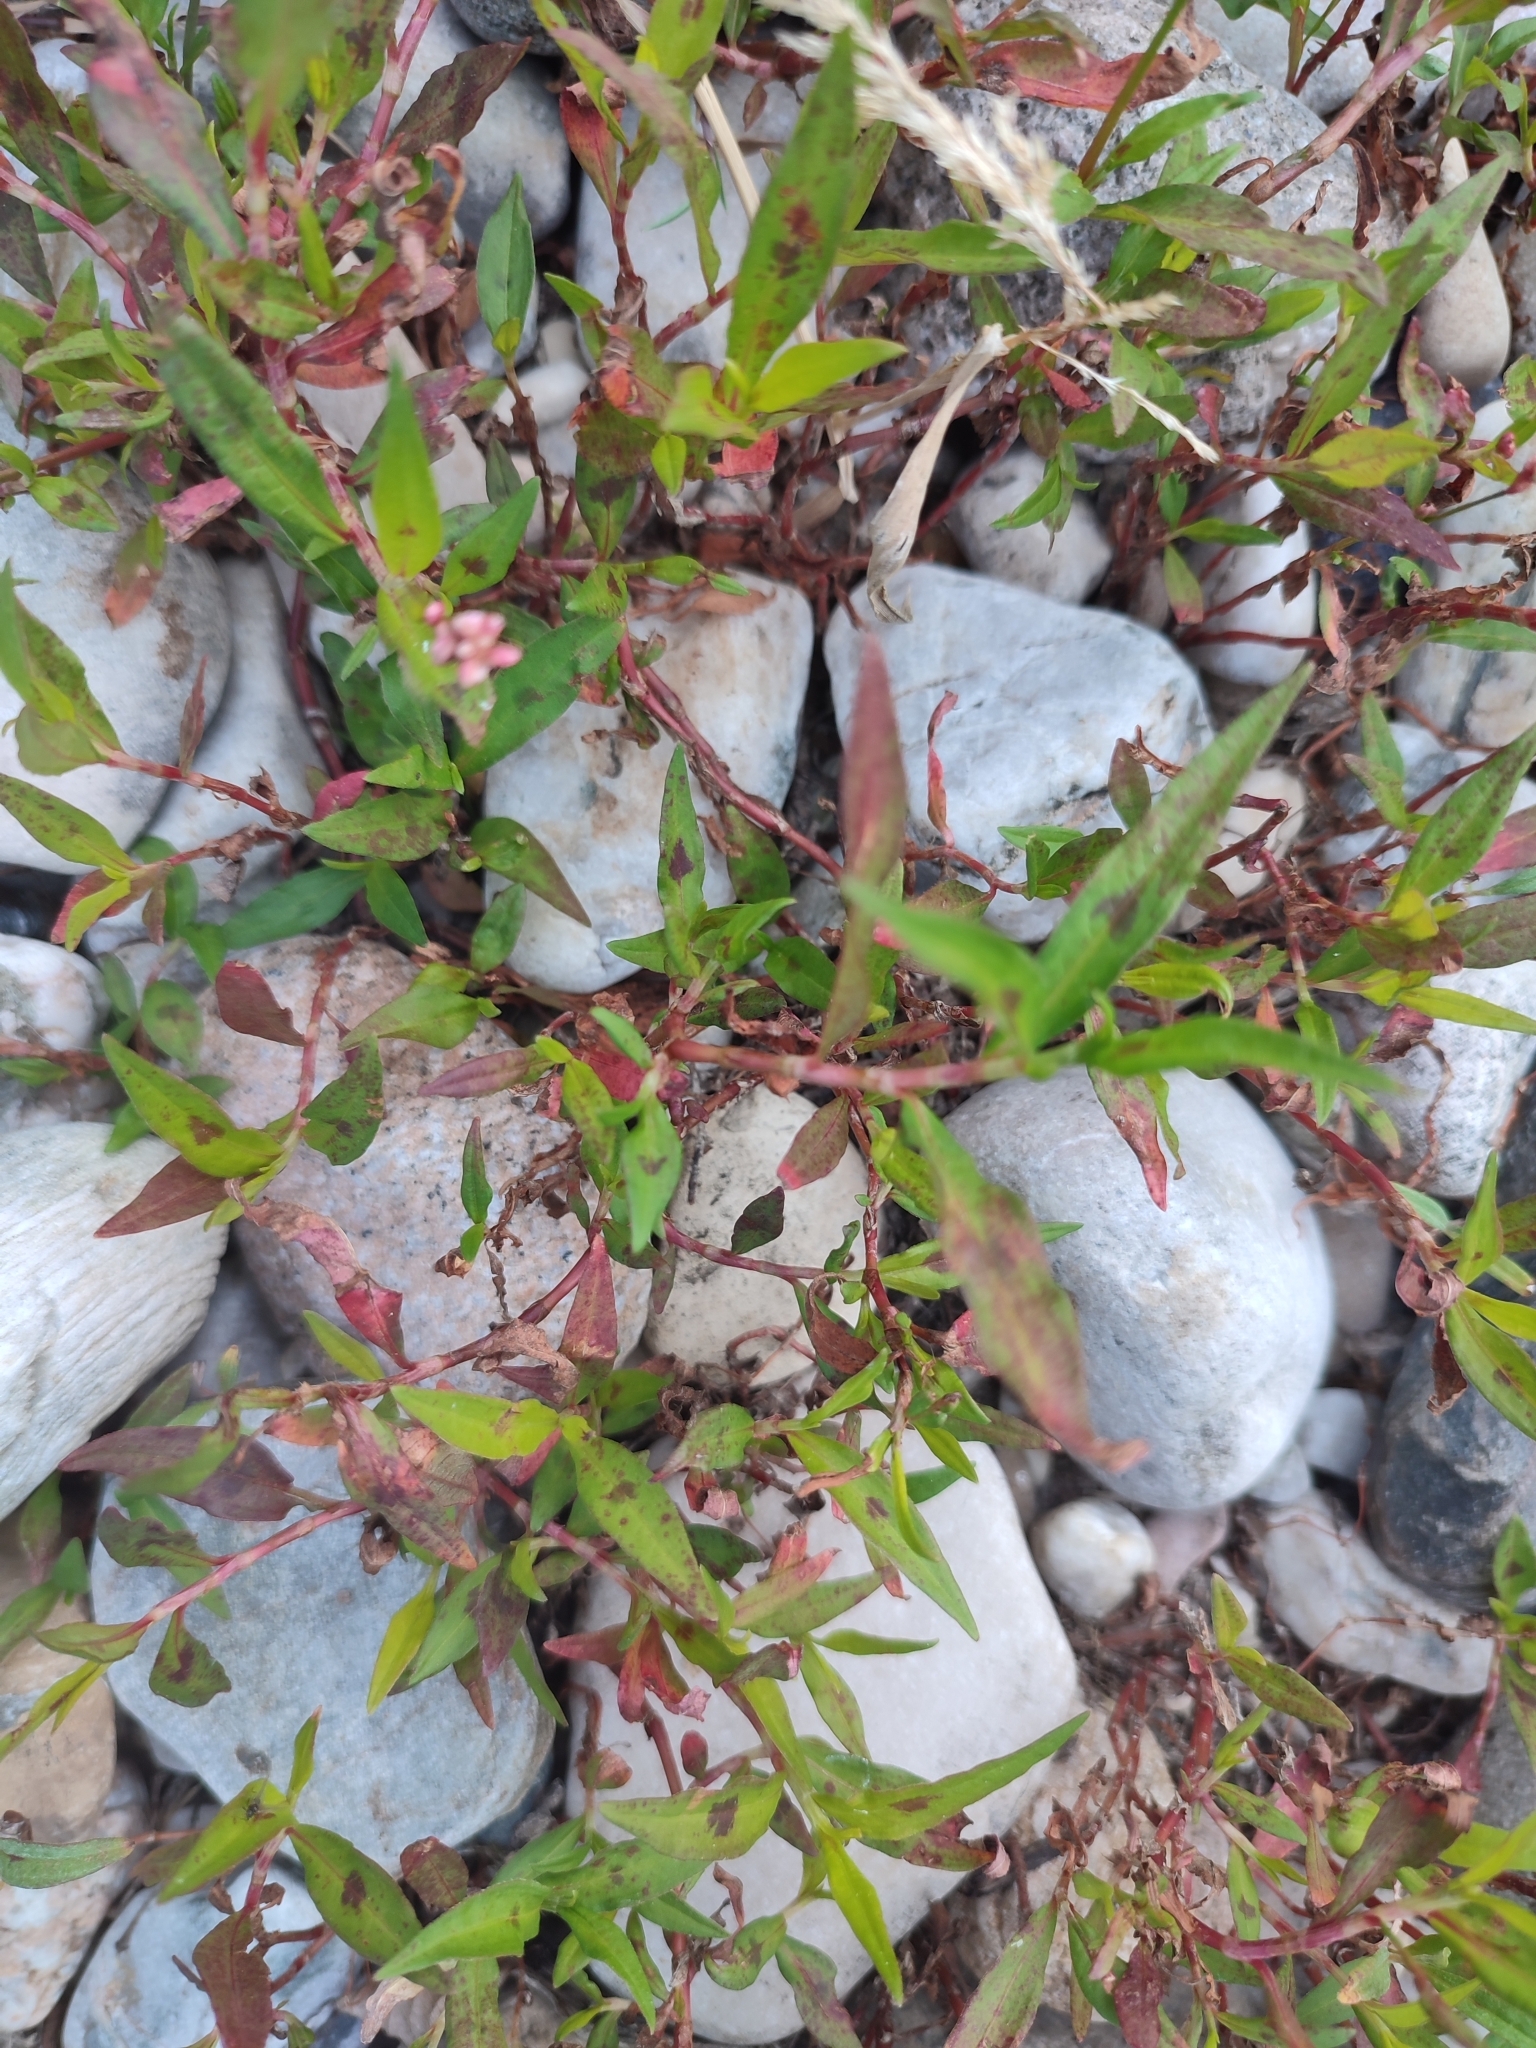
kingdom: Plantae
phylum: Tracheophyta
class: Magnoliopsida
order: Caryophyllales
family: Polygonaceae
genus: Persicaria
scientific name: Persicaria maculosa
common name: Redshank
